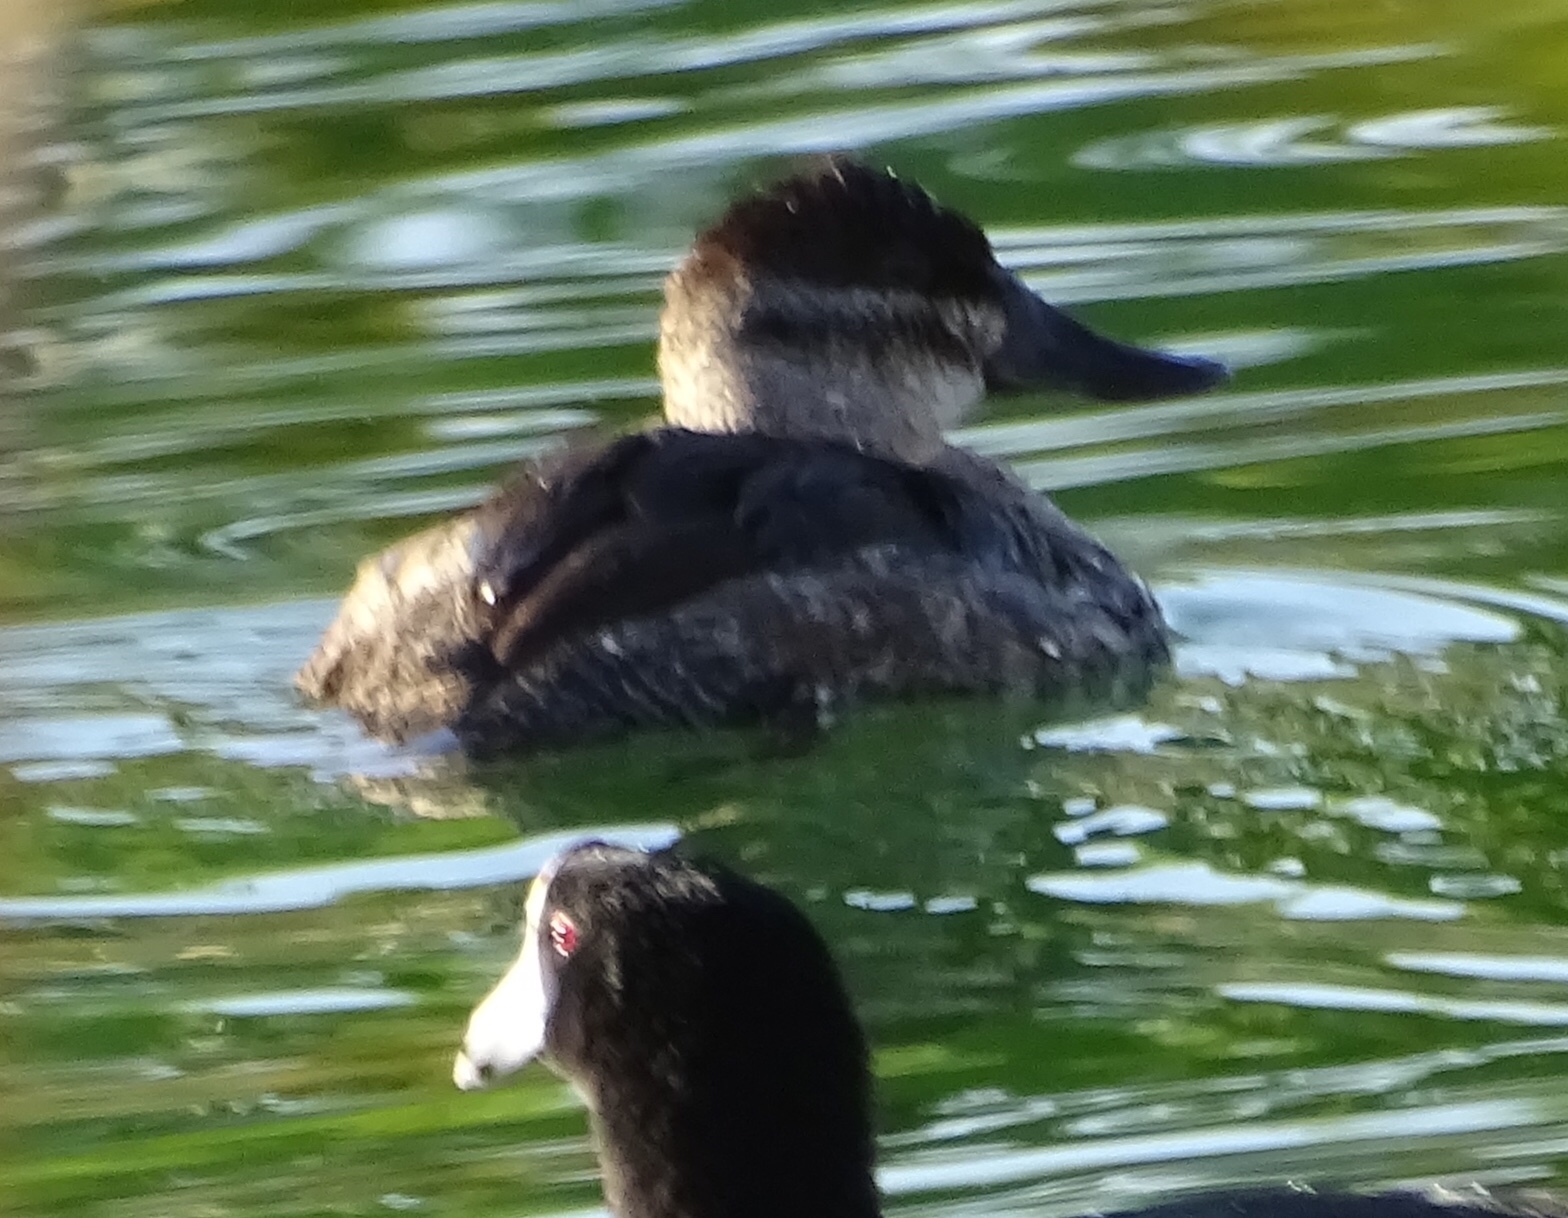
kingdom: Animalia
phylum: Chordata
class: Aves
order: Anseriformes
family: Anatidae
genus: Oxyura
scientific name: Oxyura jamaicensis
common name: Ruddy duck
